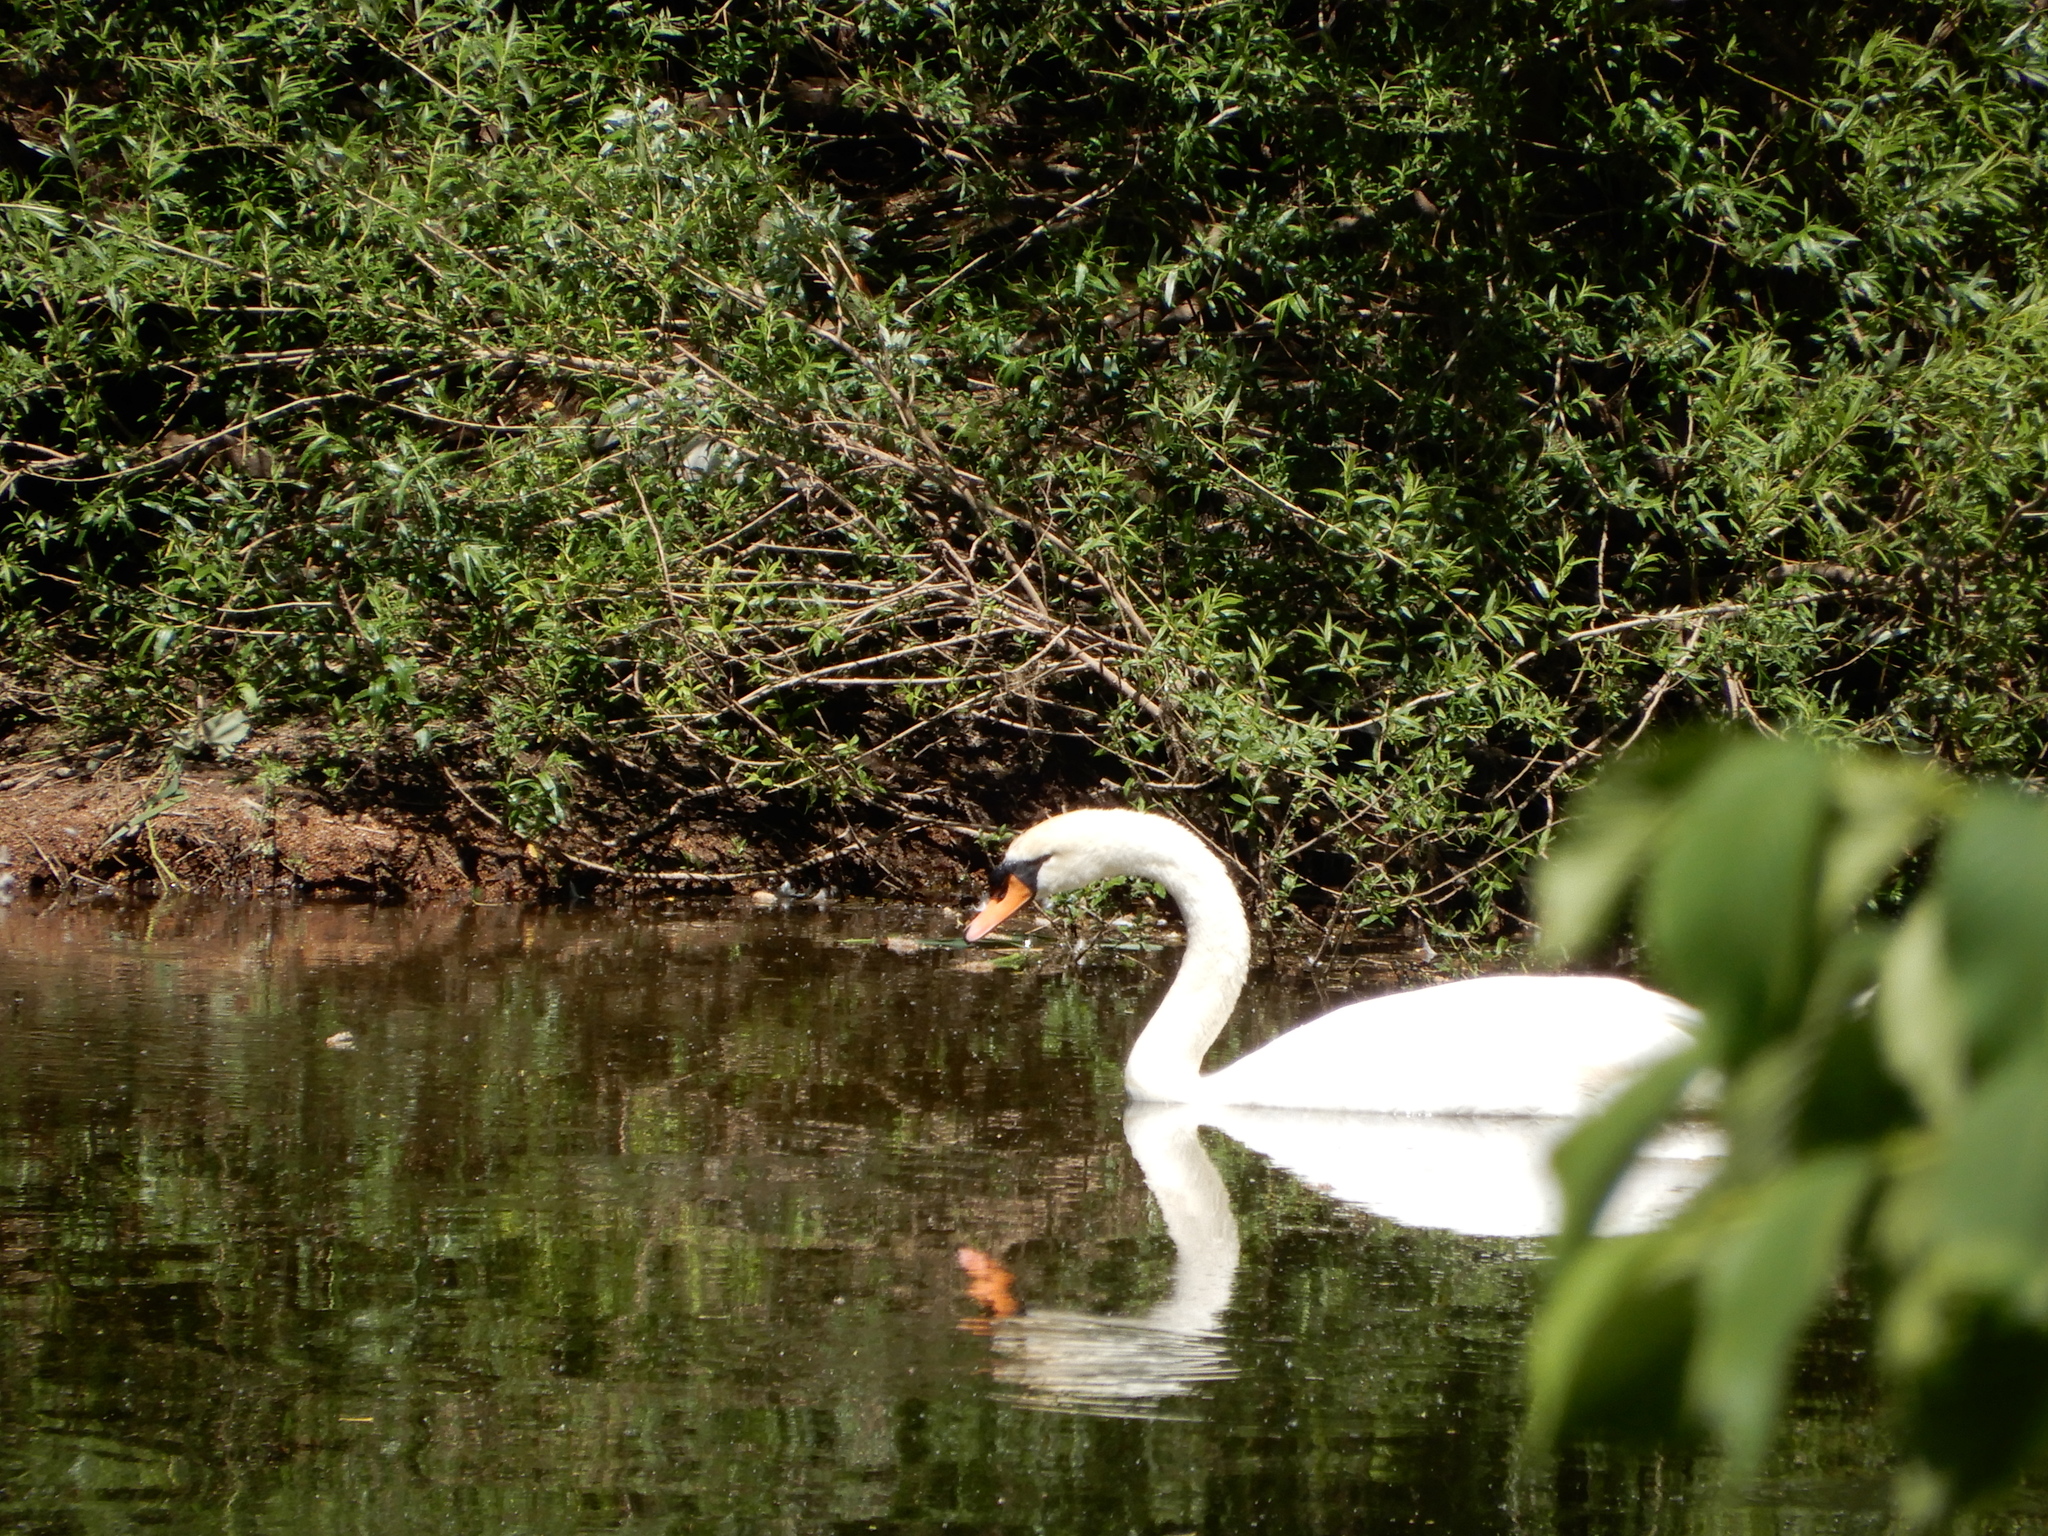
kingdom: Animalia
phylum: Chordata
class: Aves
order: Anseriformes
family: Anatidae
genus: Cygnus
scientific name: Cygnus olor
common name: Mute swan
